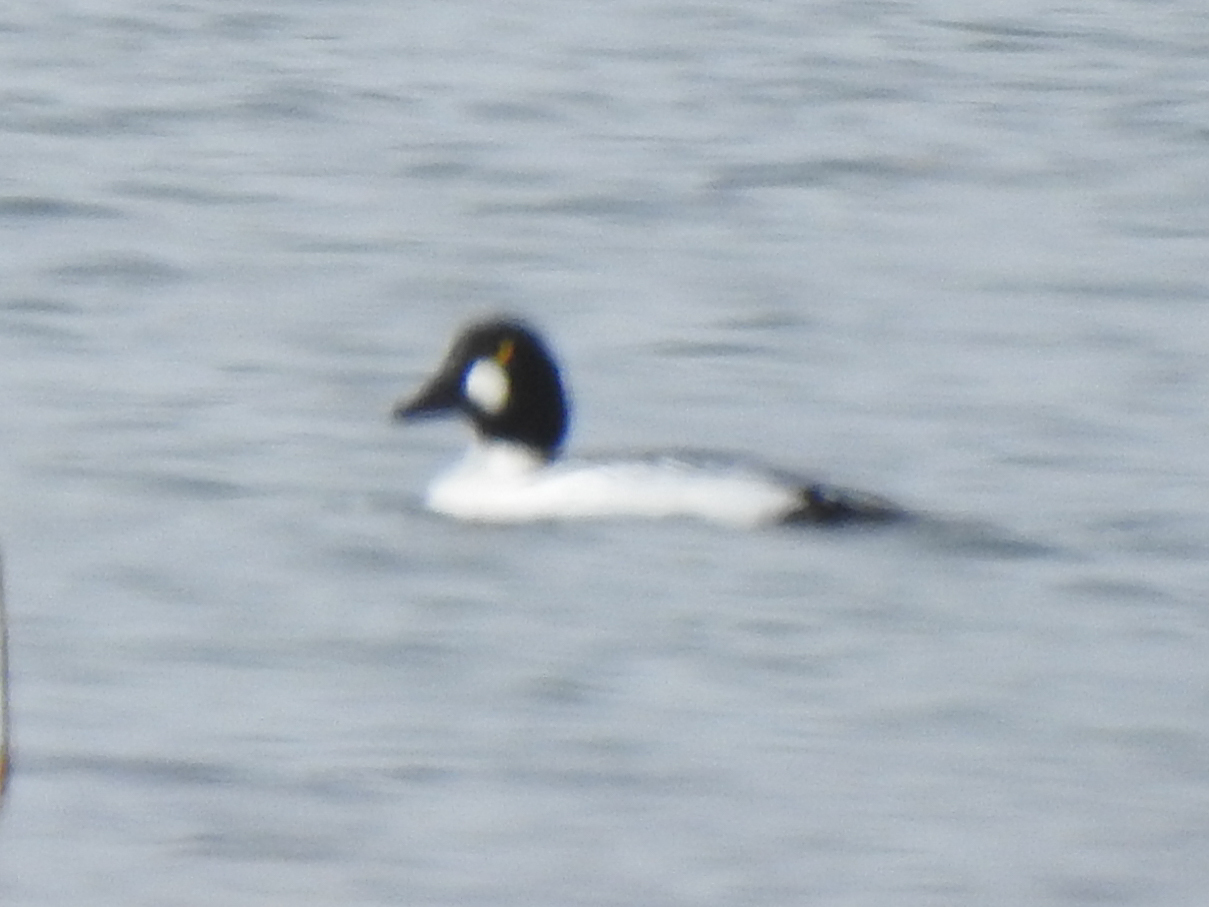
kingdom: Animalia
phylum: Chordata
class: Aves
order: Anseriformes
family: Anatidae
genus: Bucephala
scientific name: Bucephala clangula
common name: Common goldeneye
